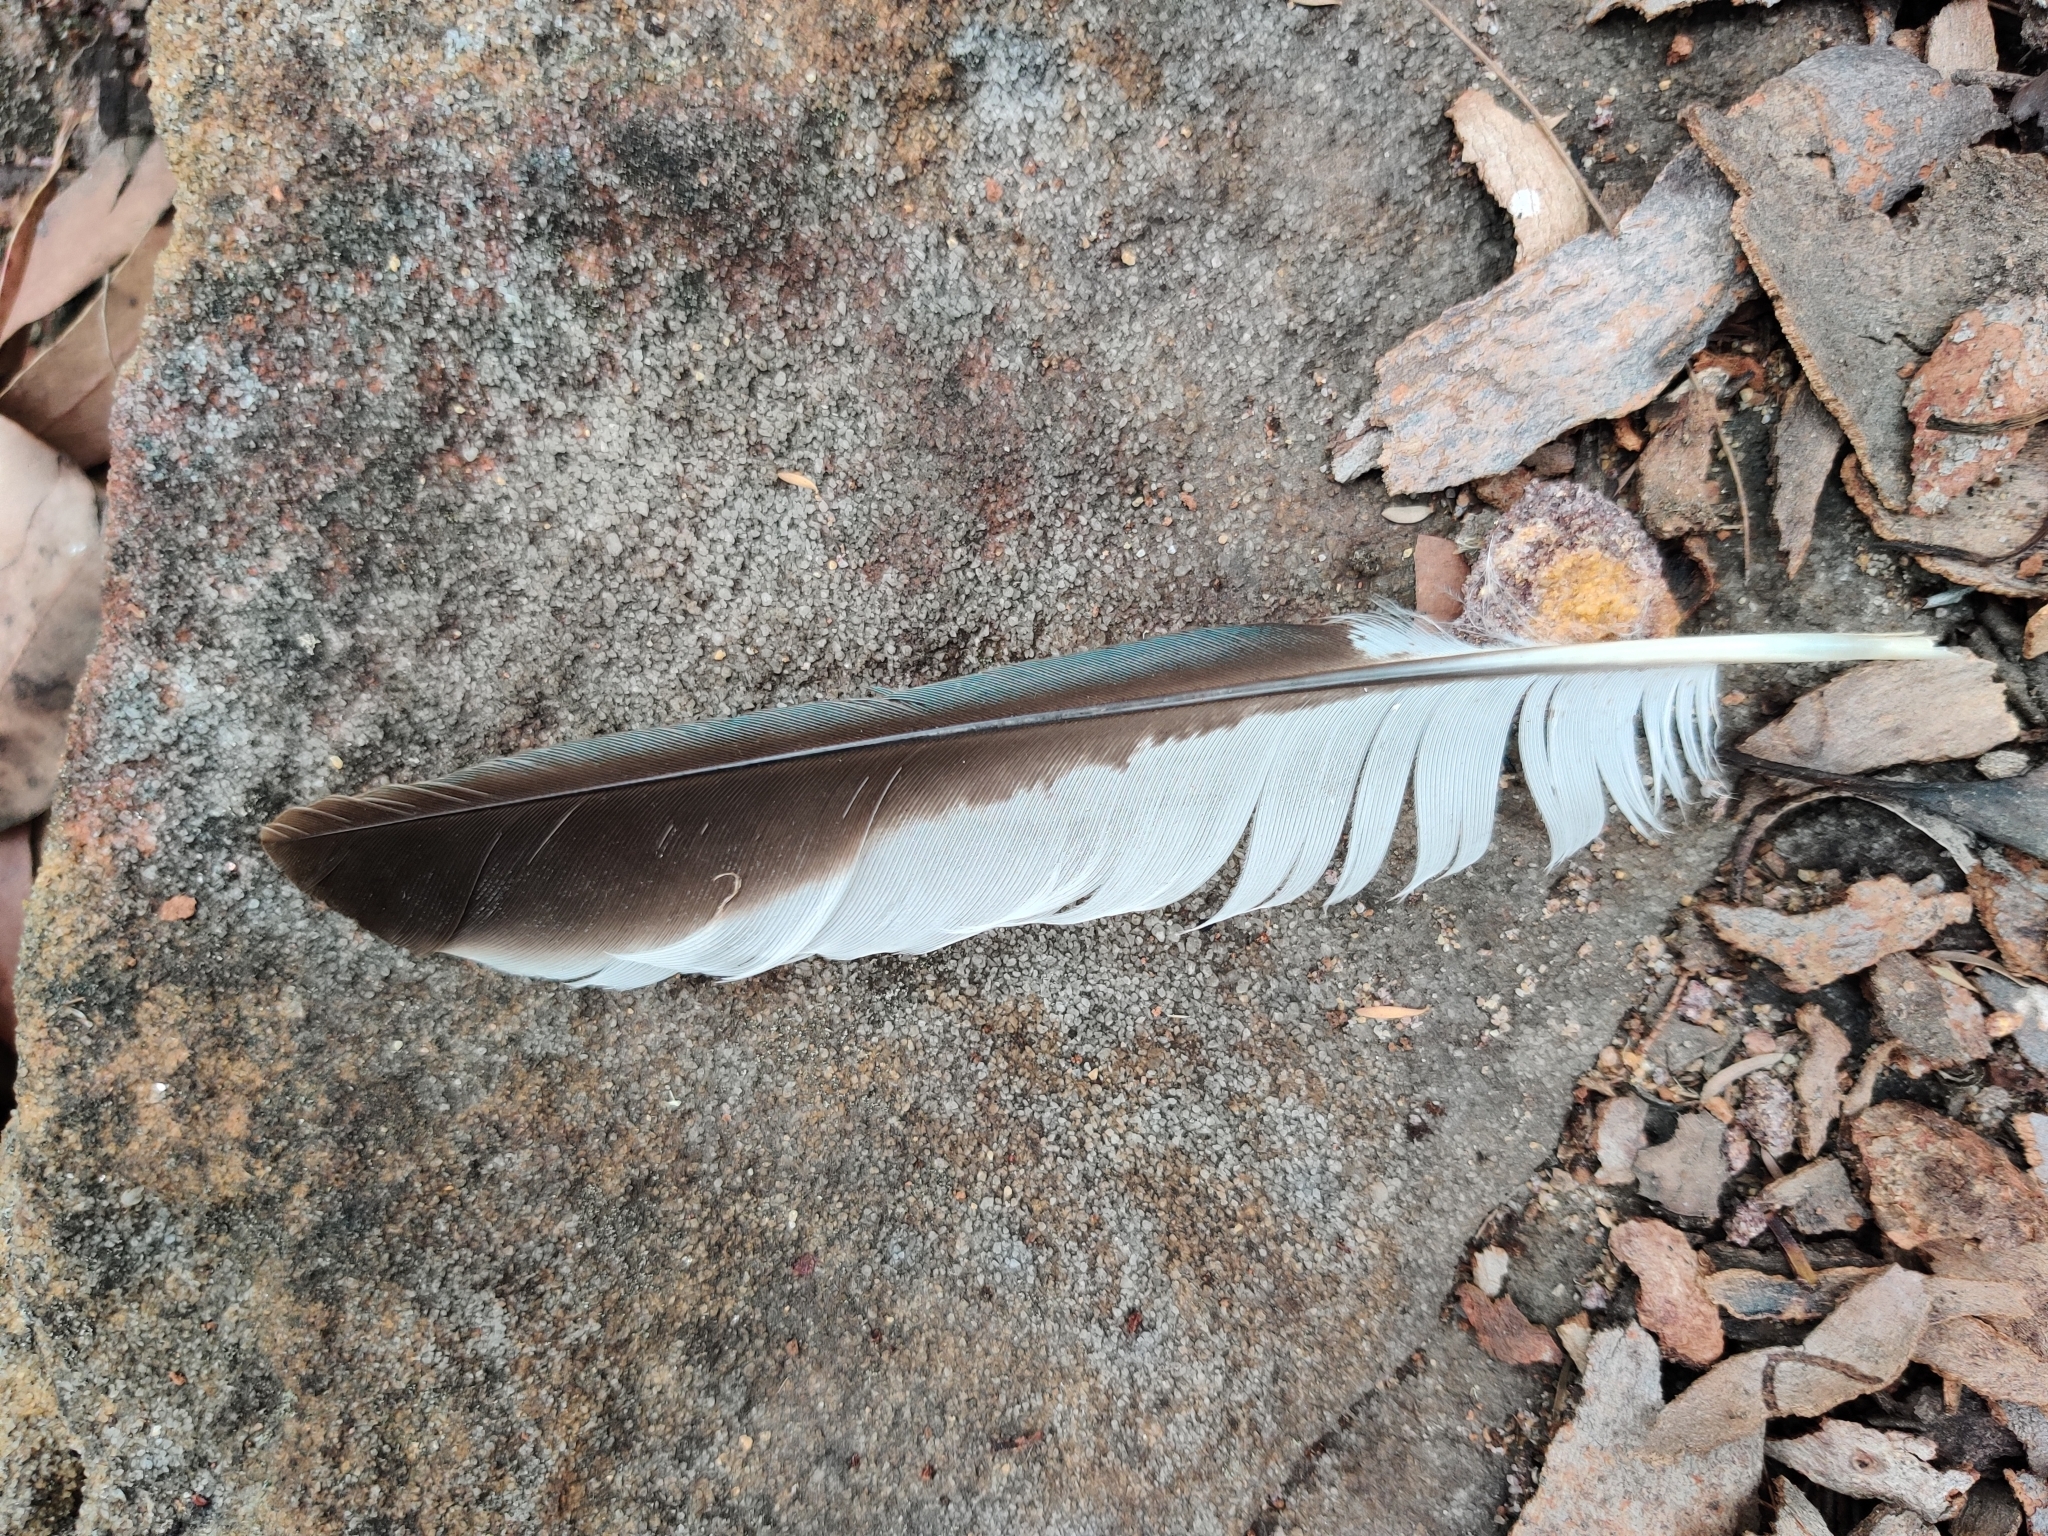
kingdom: Animalia
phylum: Chordata
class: Aves
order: Coraciiformes
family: Alcedinidae
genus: Dacelo
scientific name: Dacelo novaeguineae
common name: Laughing kookaburra
